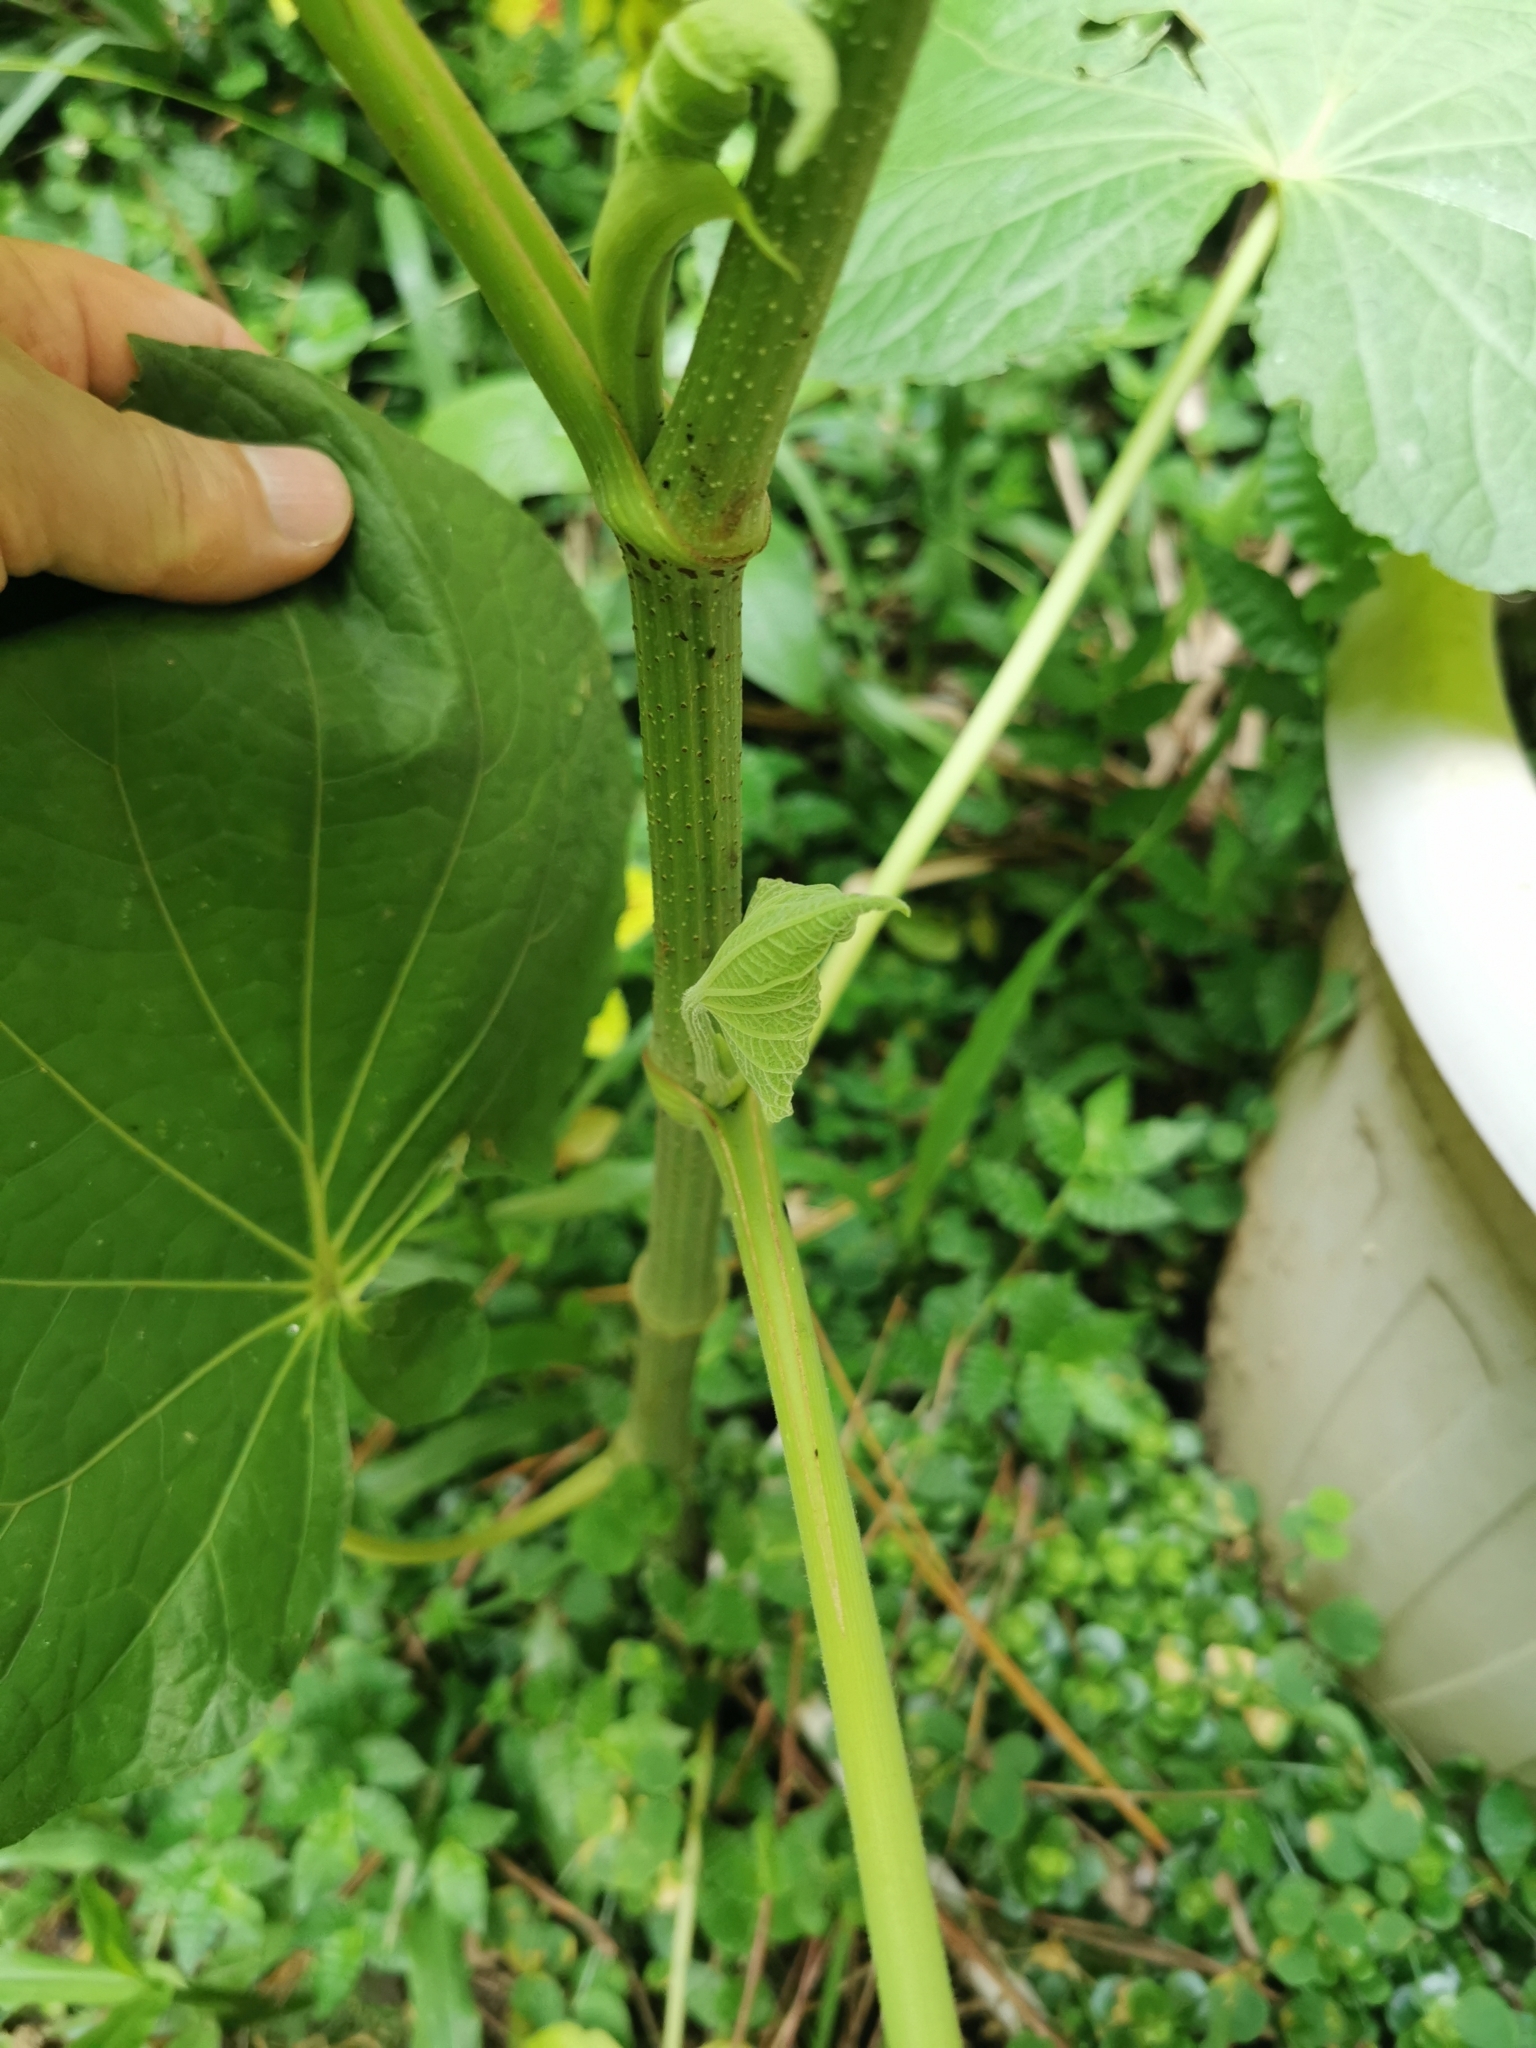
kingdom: Plantae
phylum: Tracheophyta
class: Magnoliopsida
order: Piperales
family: Piperaceae
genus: Piper
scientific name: Piper umbellatum
